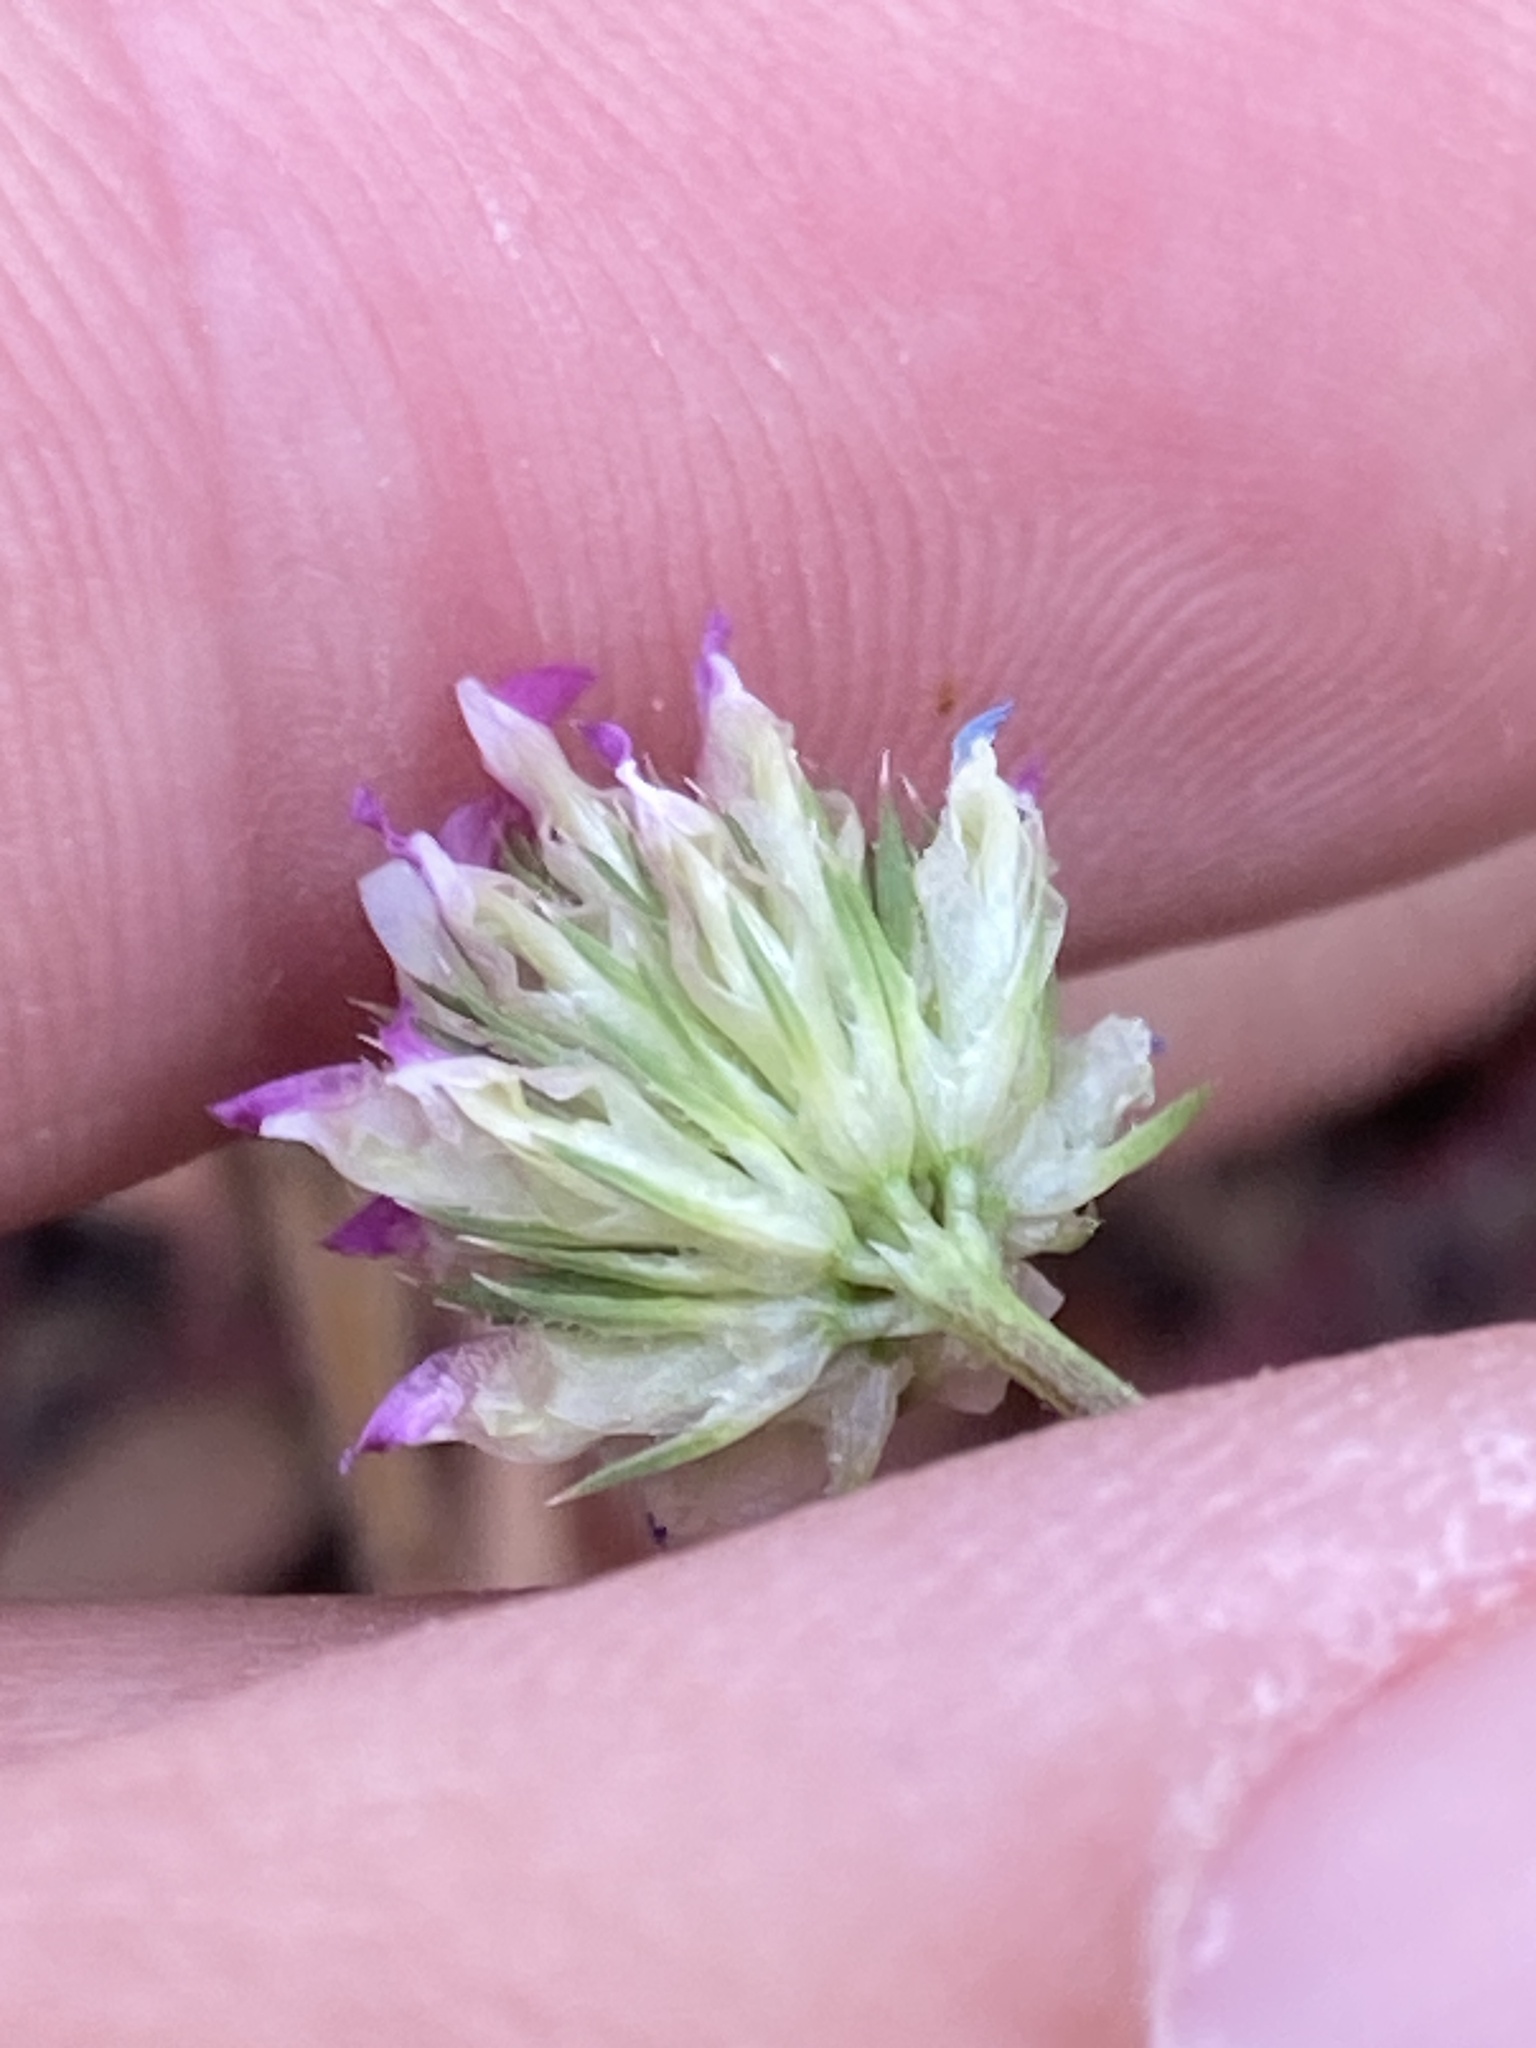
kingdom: Plantae
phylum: Tracheophyta
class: Magnoliopsida
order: Fabales
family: Fabaceae
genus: Trifolium
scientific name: Trifolium ciliolatum
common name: Foothill clover
